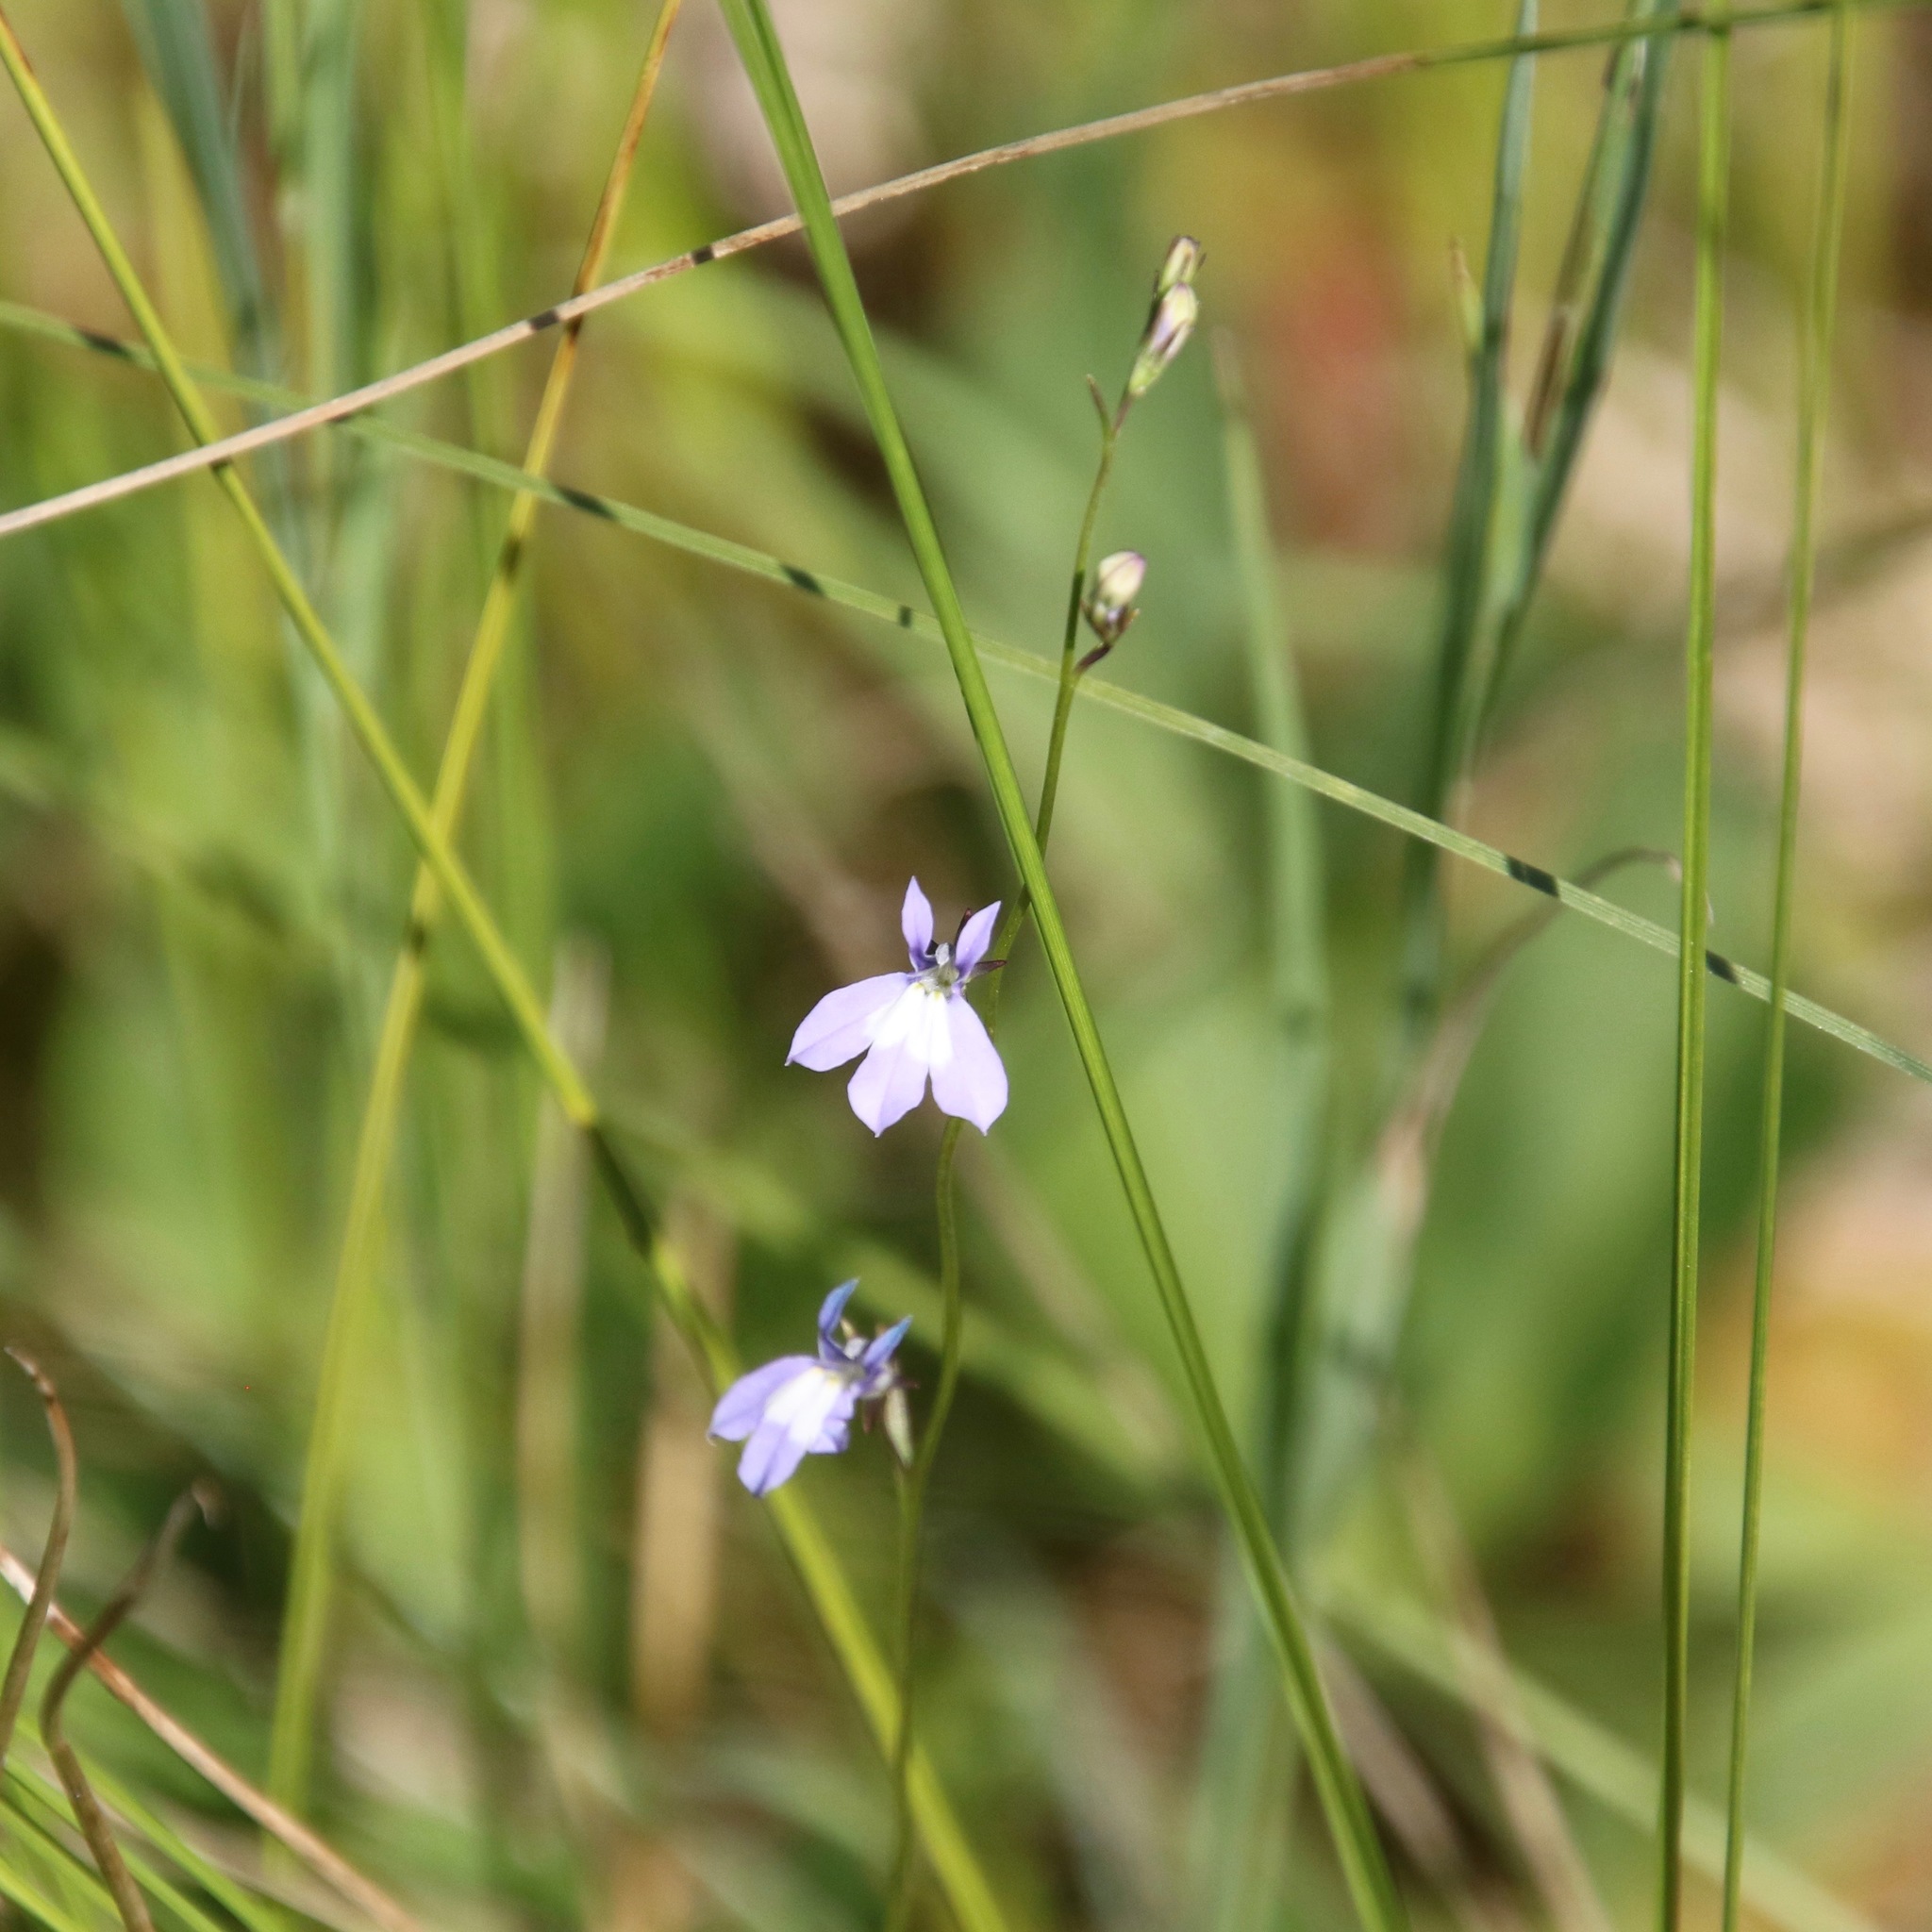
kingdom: Plantae
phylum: Tracheophyta
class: Magnoliopsida
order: Asterales
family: Campanulaceae
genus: Lobelia
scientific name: Lobelia kalmii
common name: Kalm's lobelia
